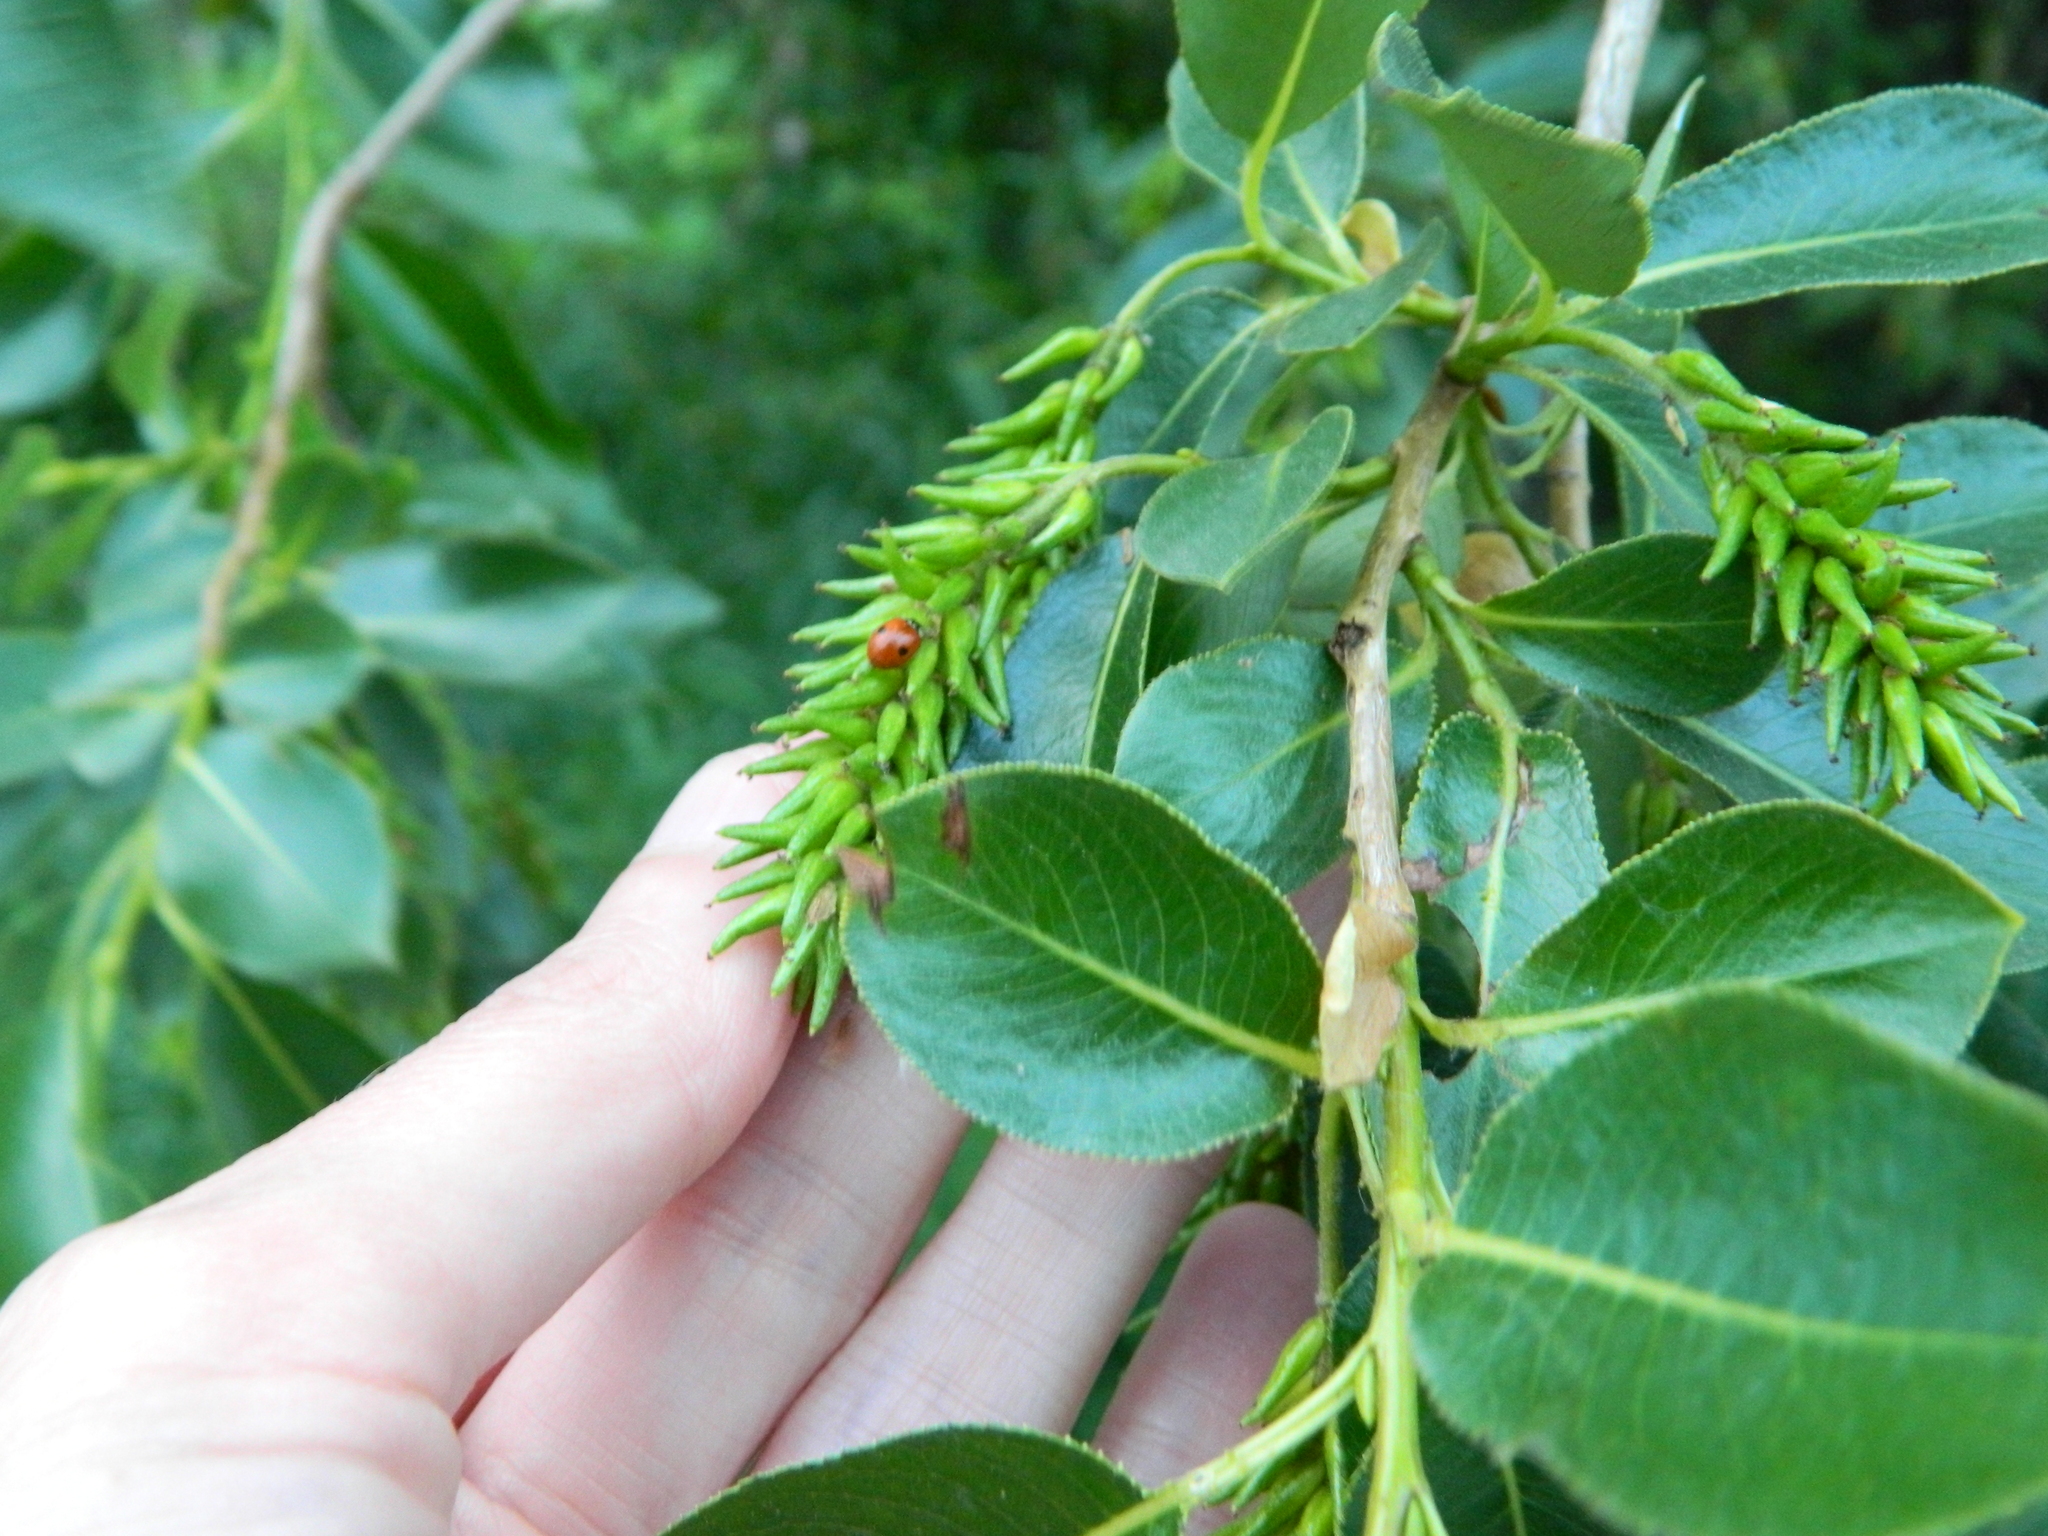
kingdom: Plantae
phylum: Tracheophyta
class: Magnoliopsida
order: Malpighiales
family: Salicaceae
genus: Salix
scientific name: Salix pentandra
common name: Bay willow
